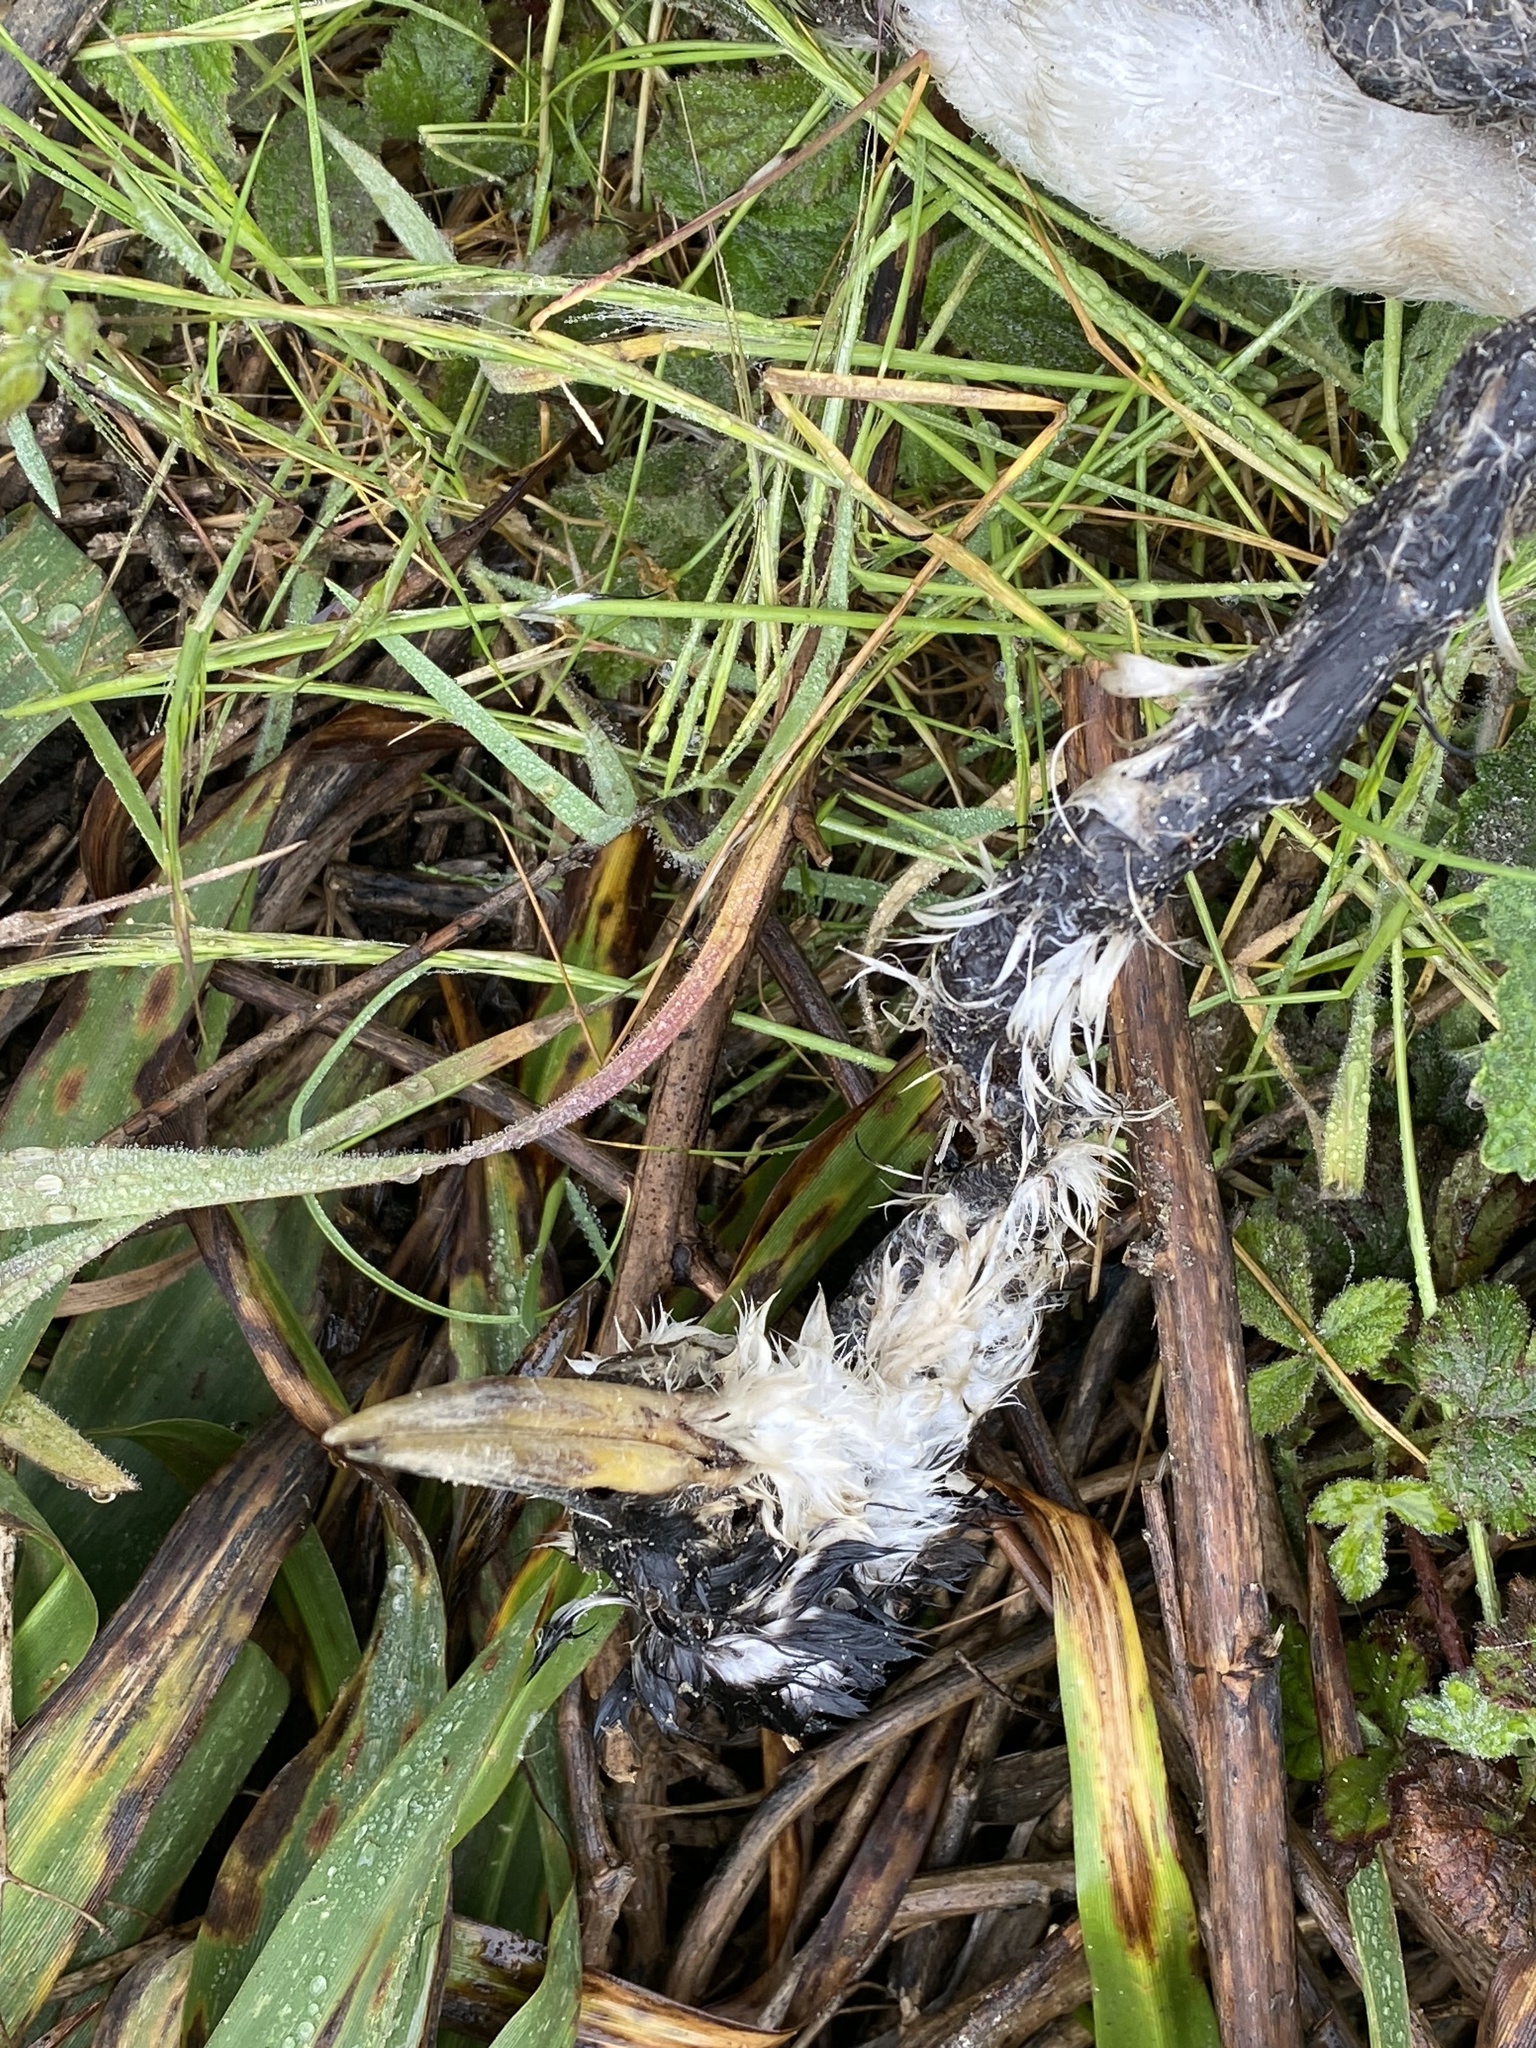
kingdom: Animalia
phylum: Chordata
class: Aves
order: Podicipediformes
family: Podicipedidae
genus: Aechmophorus
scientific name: Aechmophorus
